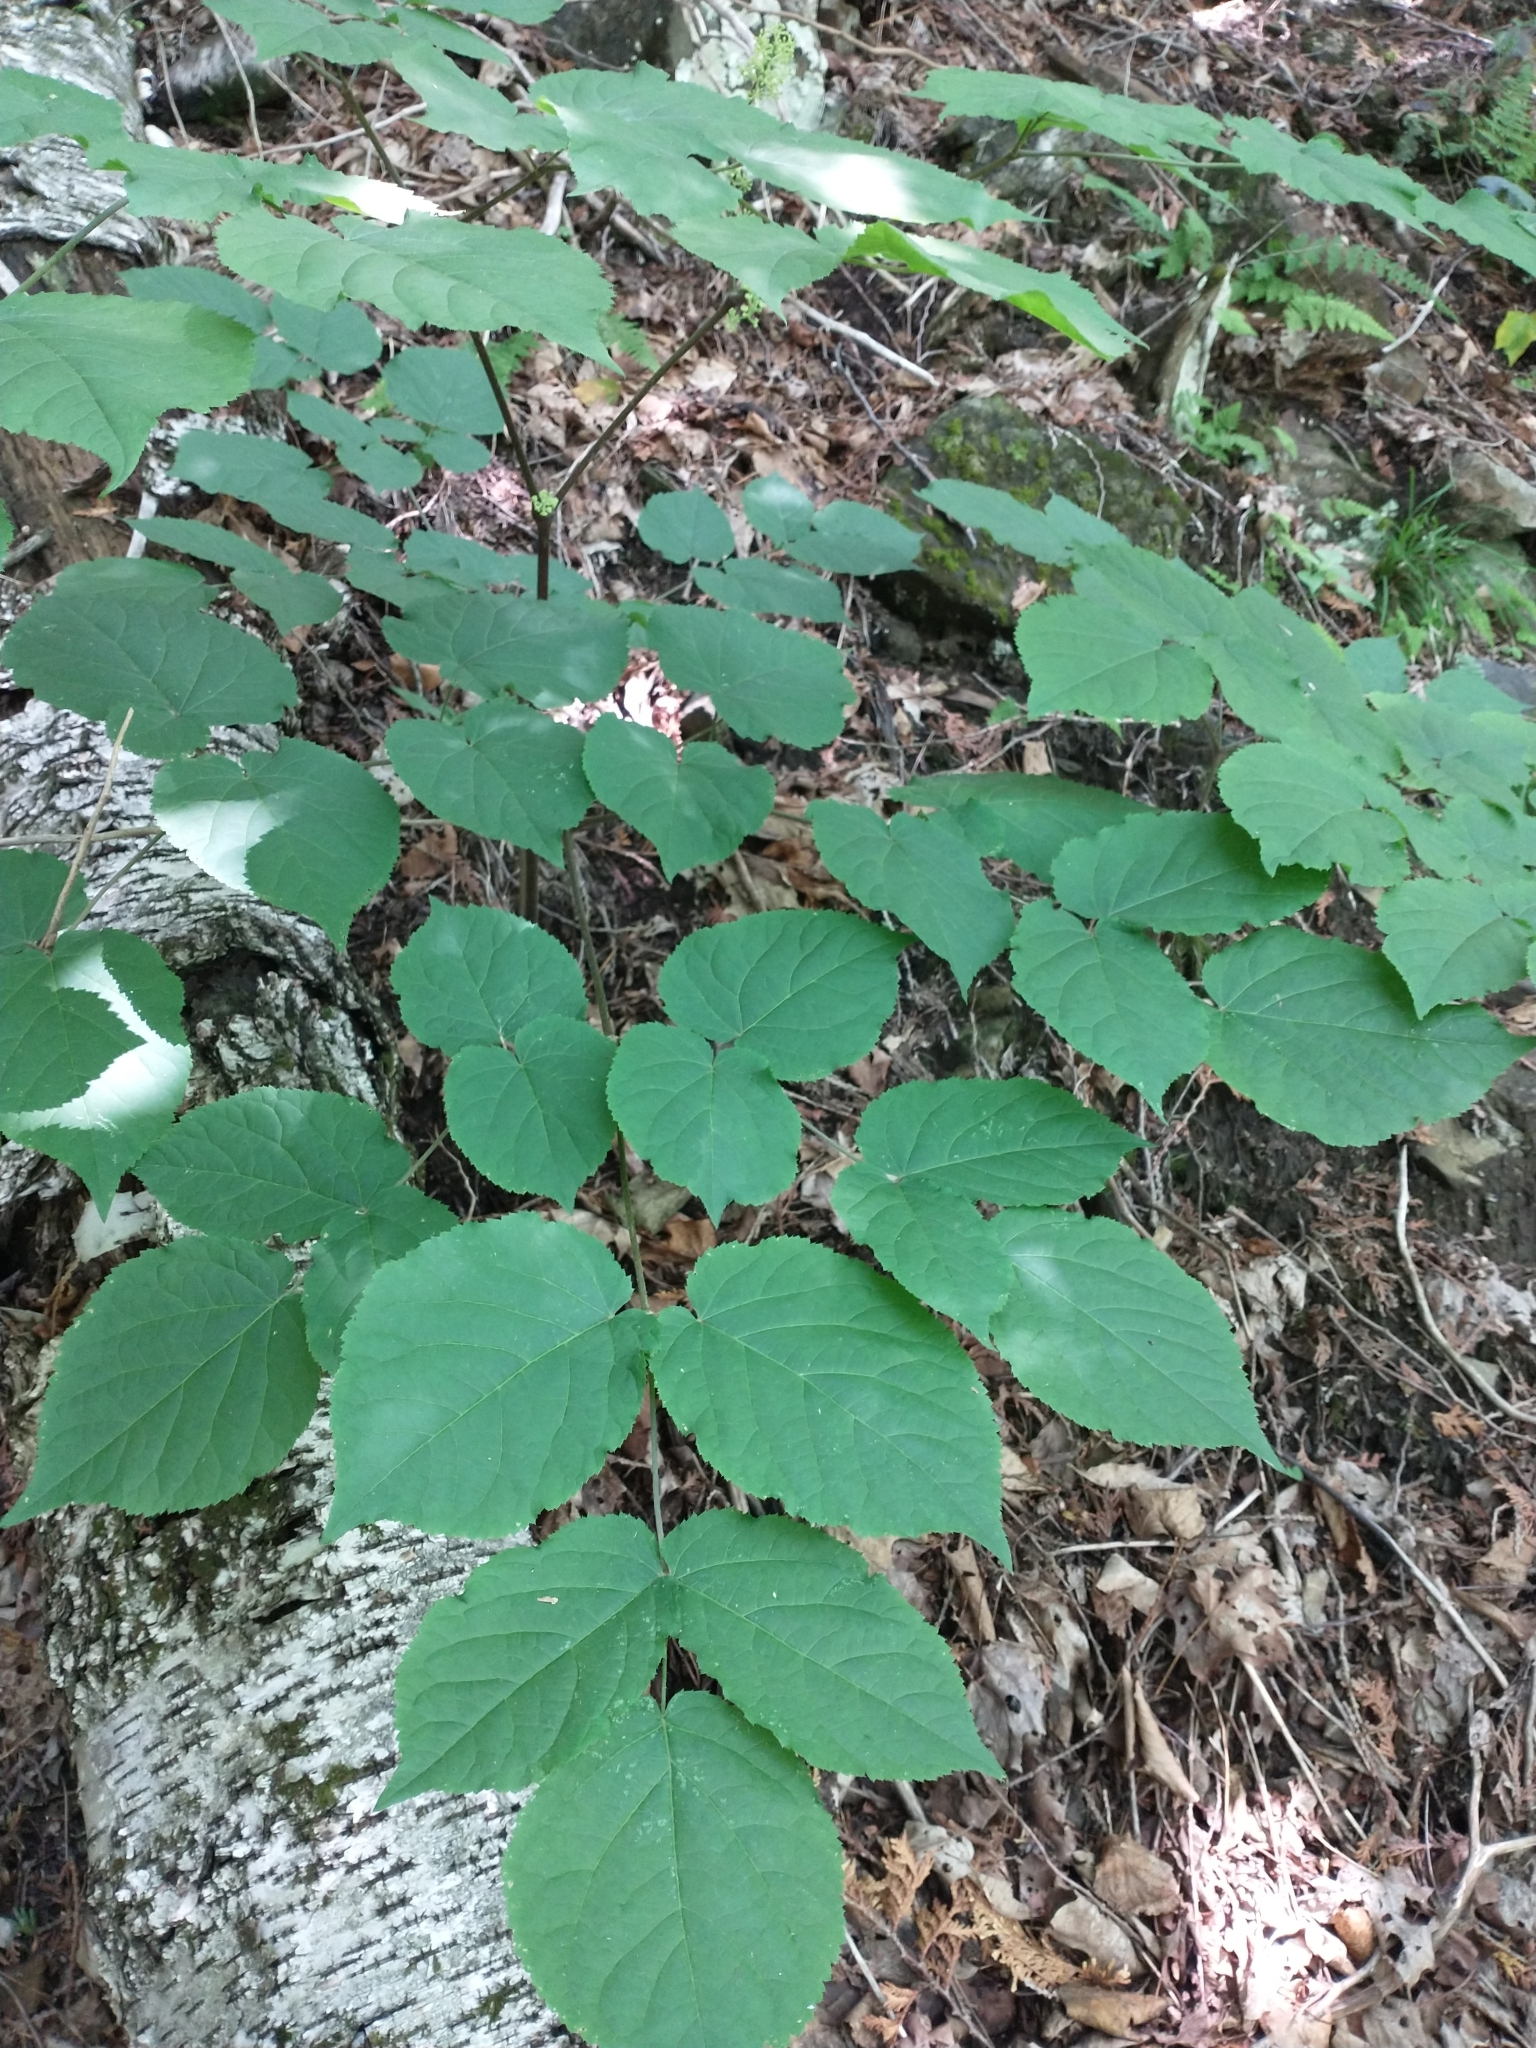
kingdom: Plantae
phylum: Tracheophyta
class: Magnoliopsida
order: Apiales
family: Araliaceae
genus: Aralia
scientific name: Aralia racemosa
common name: American-spikenard
